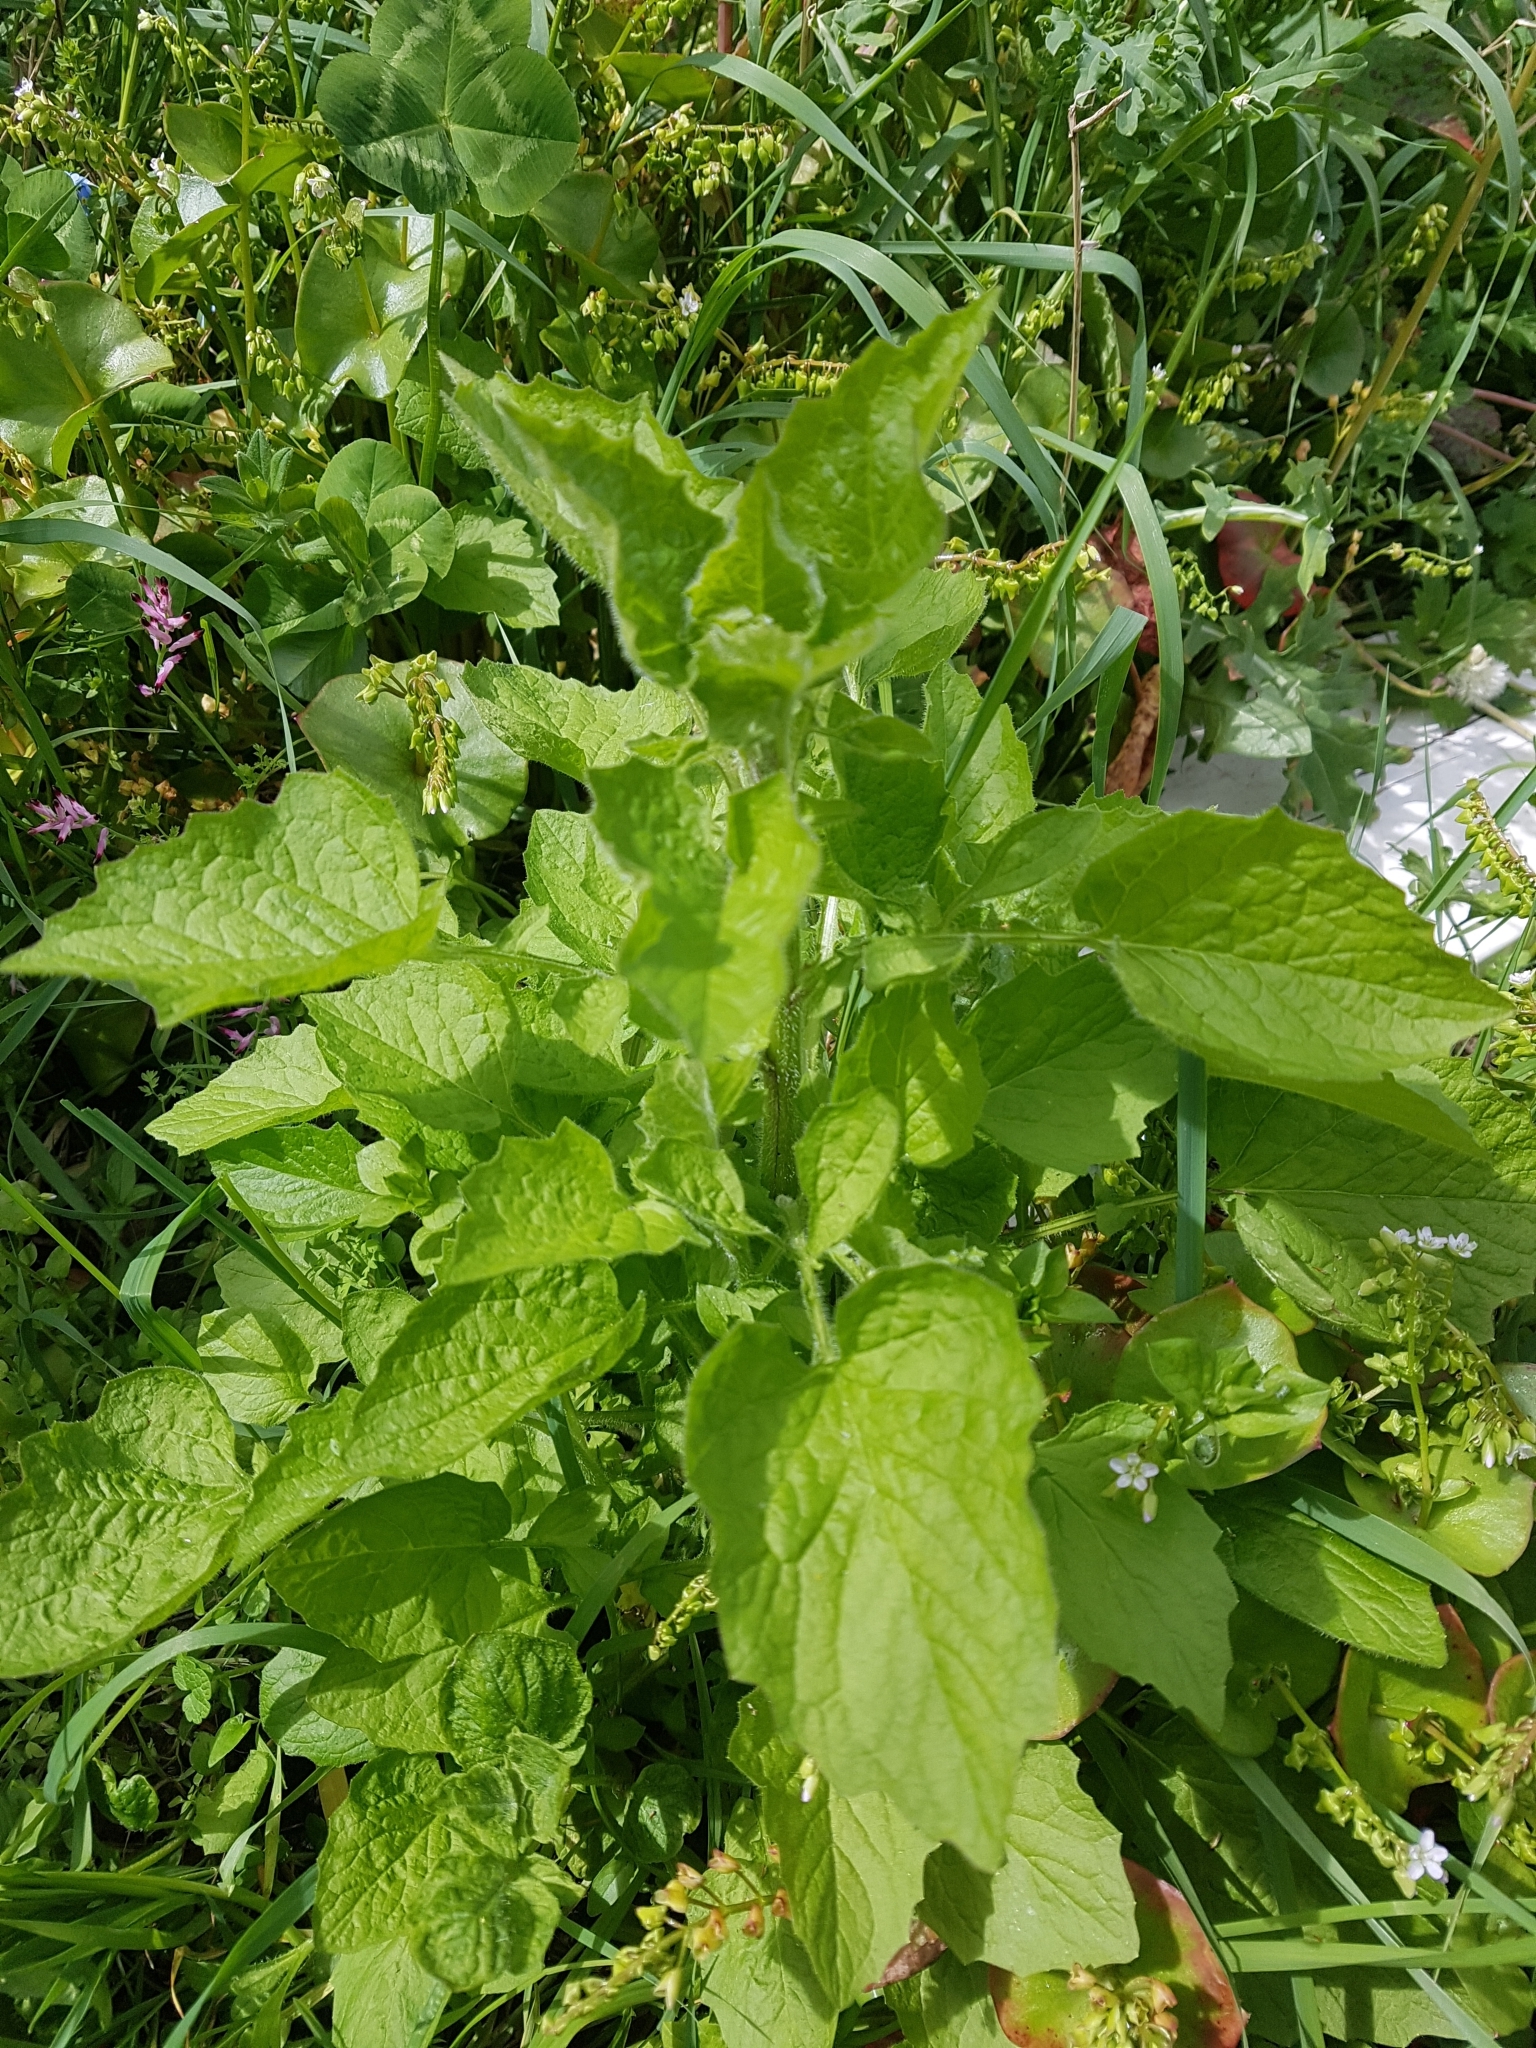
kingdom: Plantae
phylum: Tracheophyta
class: Magnoliopsida
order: Asterales
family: Asteraceae
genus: Lapsana
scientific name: Lapsana communis
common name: Nipplewort
